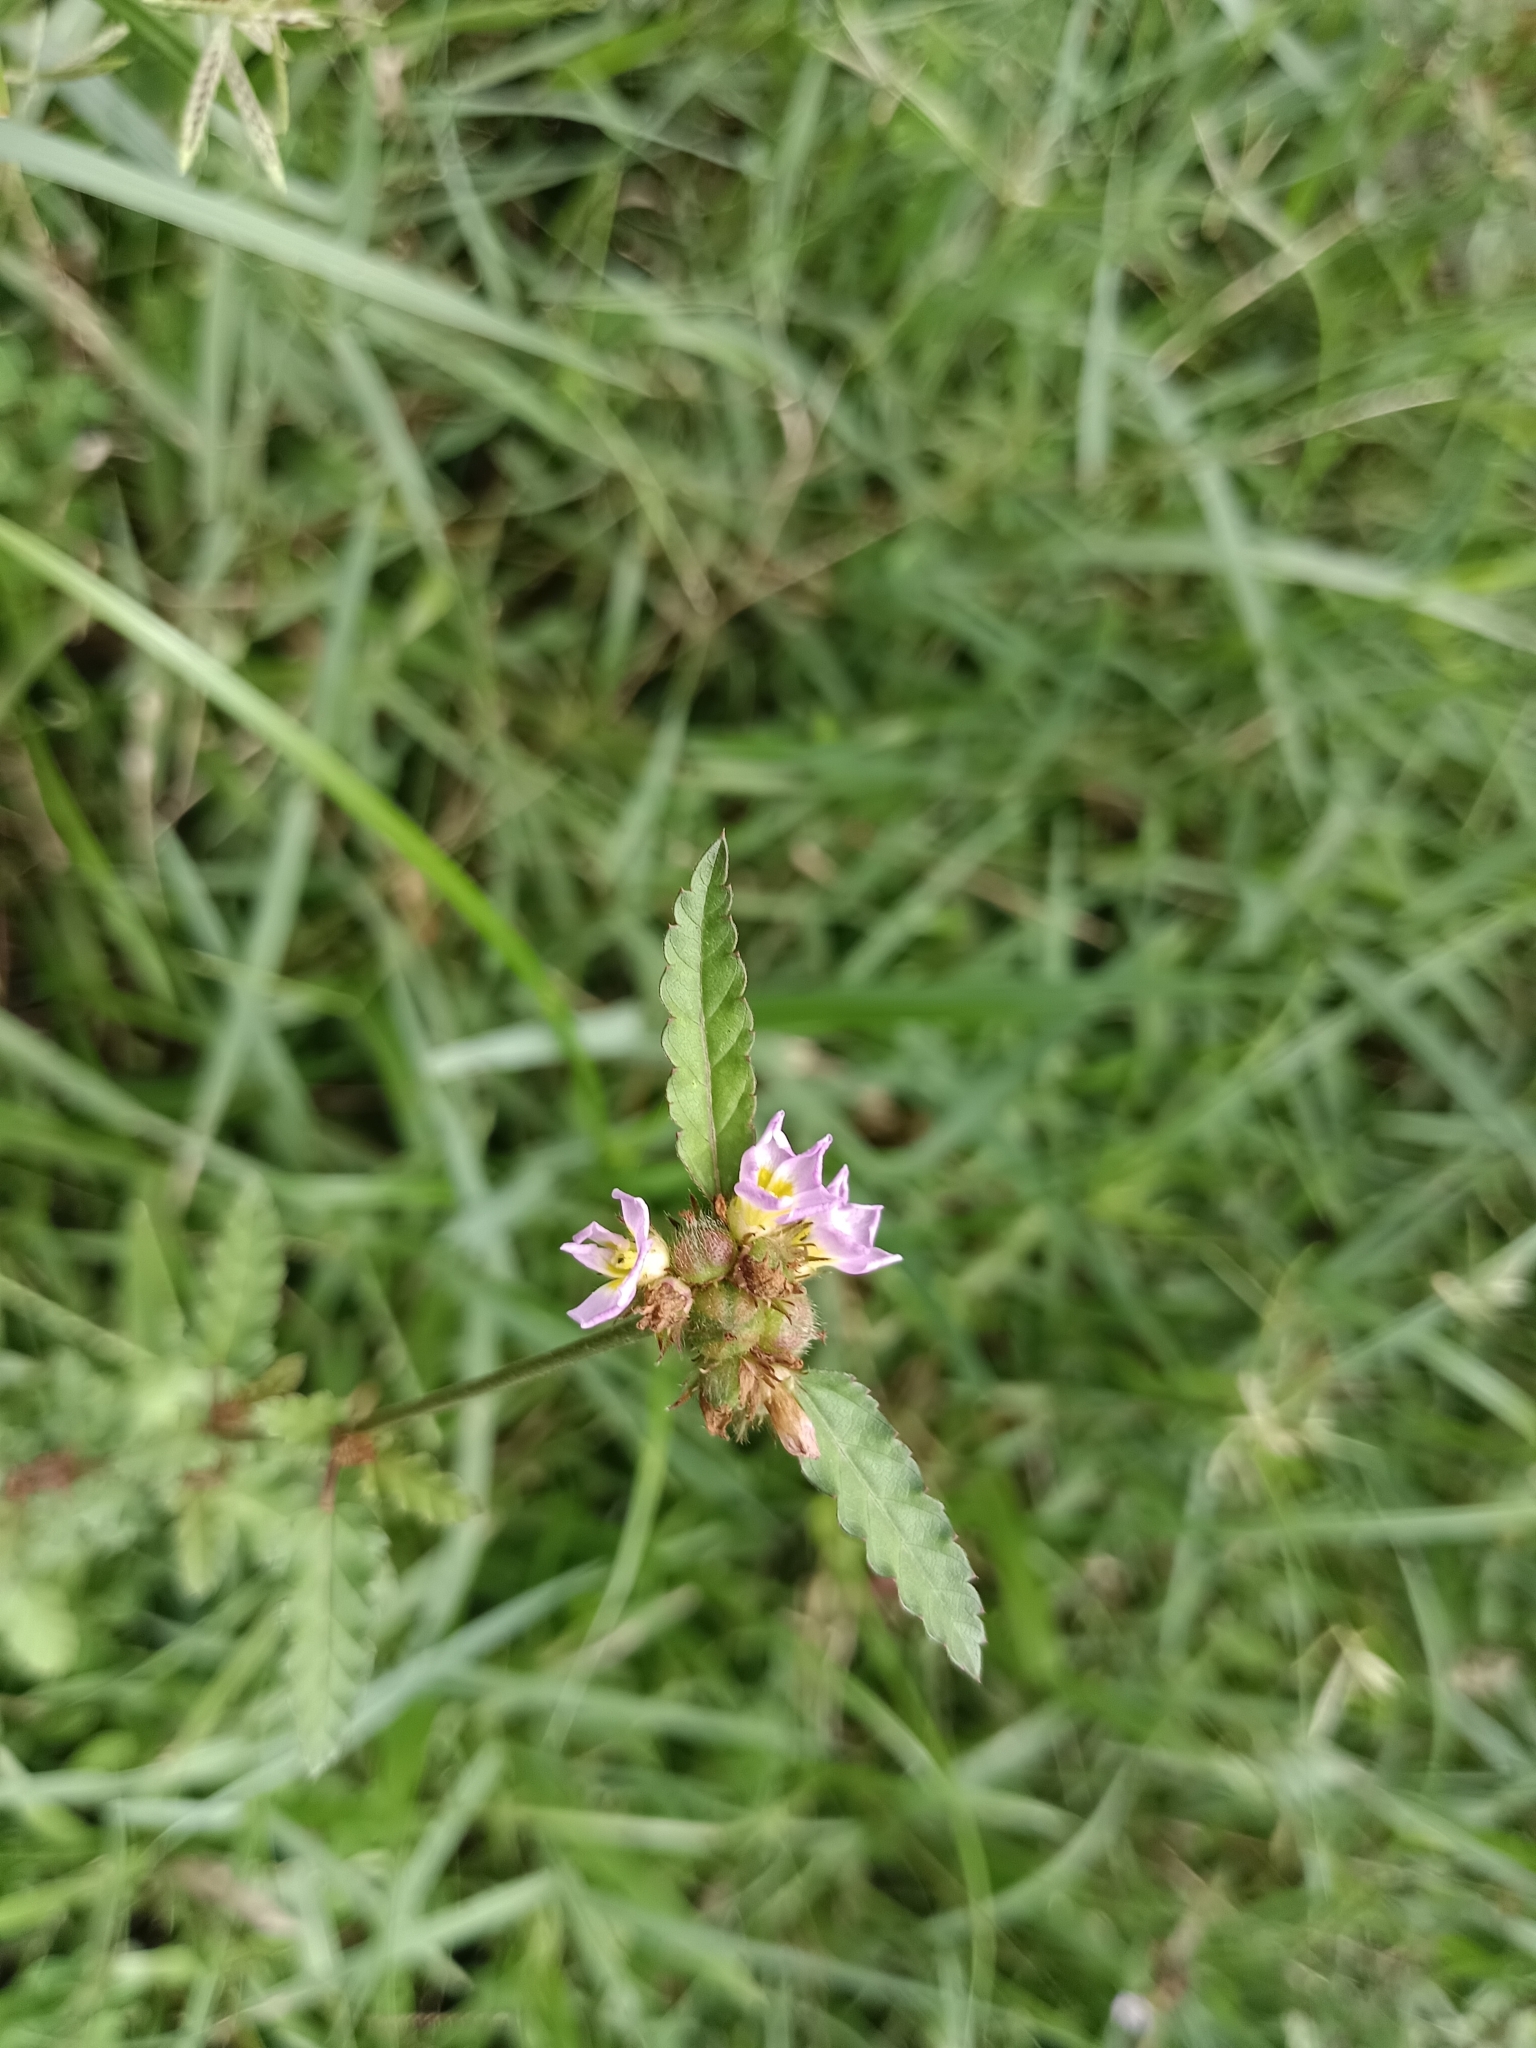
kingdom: Plantae
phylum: Tracheophyta
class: Magnoliopsida
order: Malvales
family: Malvaceae
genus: Melochia
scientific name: Melochia corchorifolia
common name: Chocolateweed
